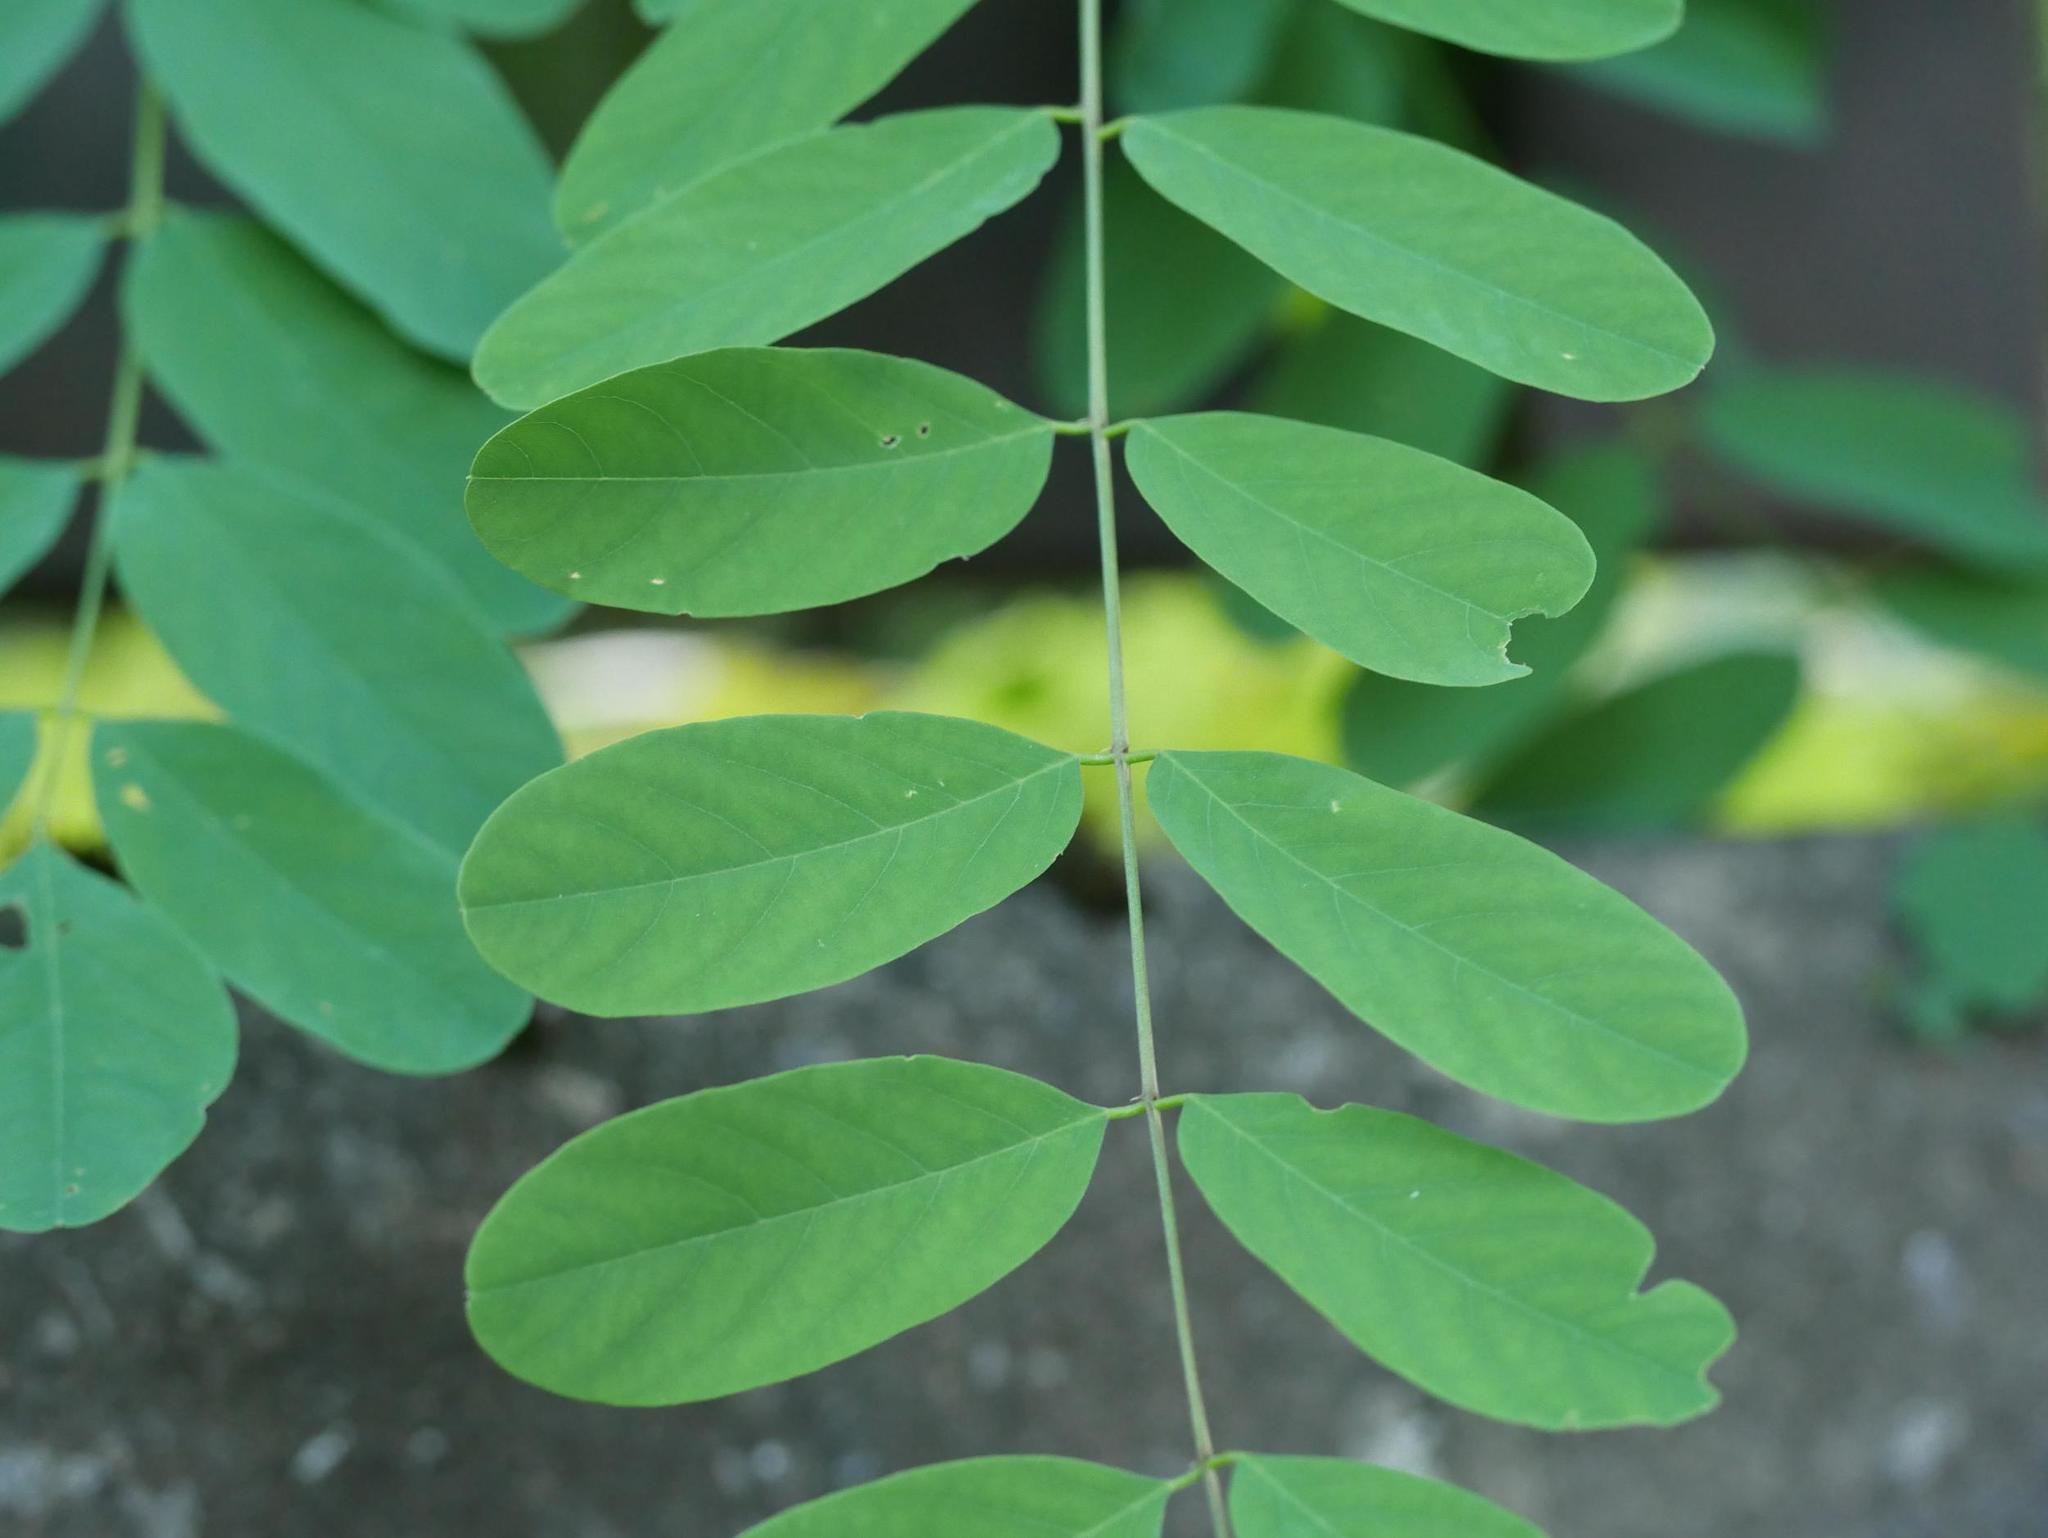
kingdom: Plantae
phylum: Tracheophyta
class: Magnoliopsida
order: Fabales
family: Fabaceae
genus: Robinia
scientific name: Robinia pseudoacacia
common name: Black locust
